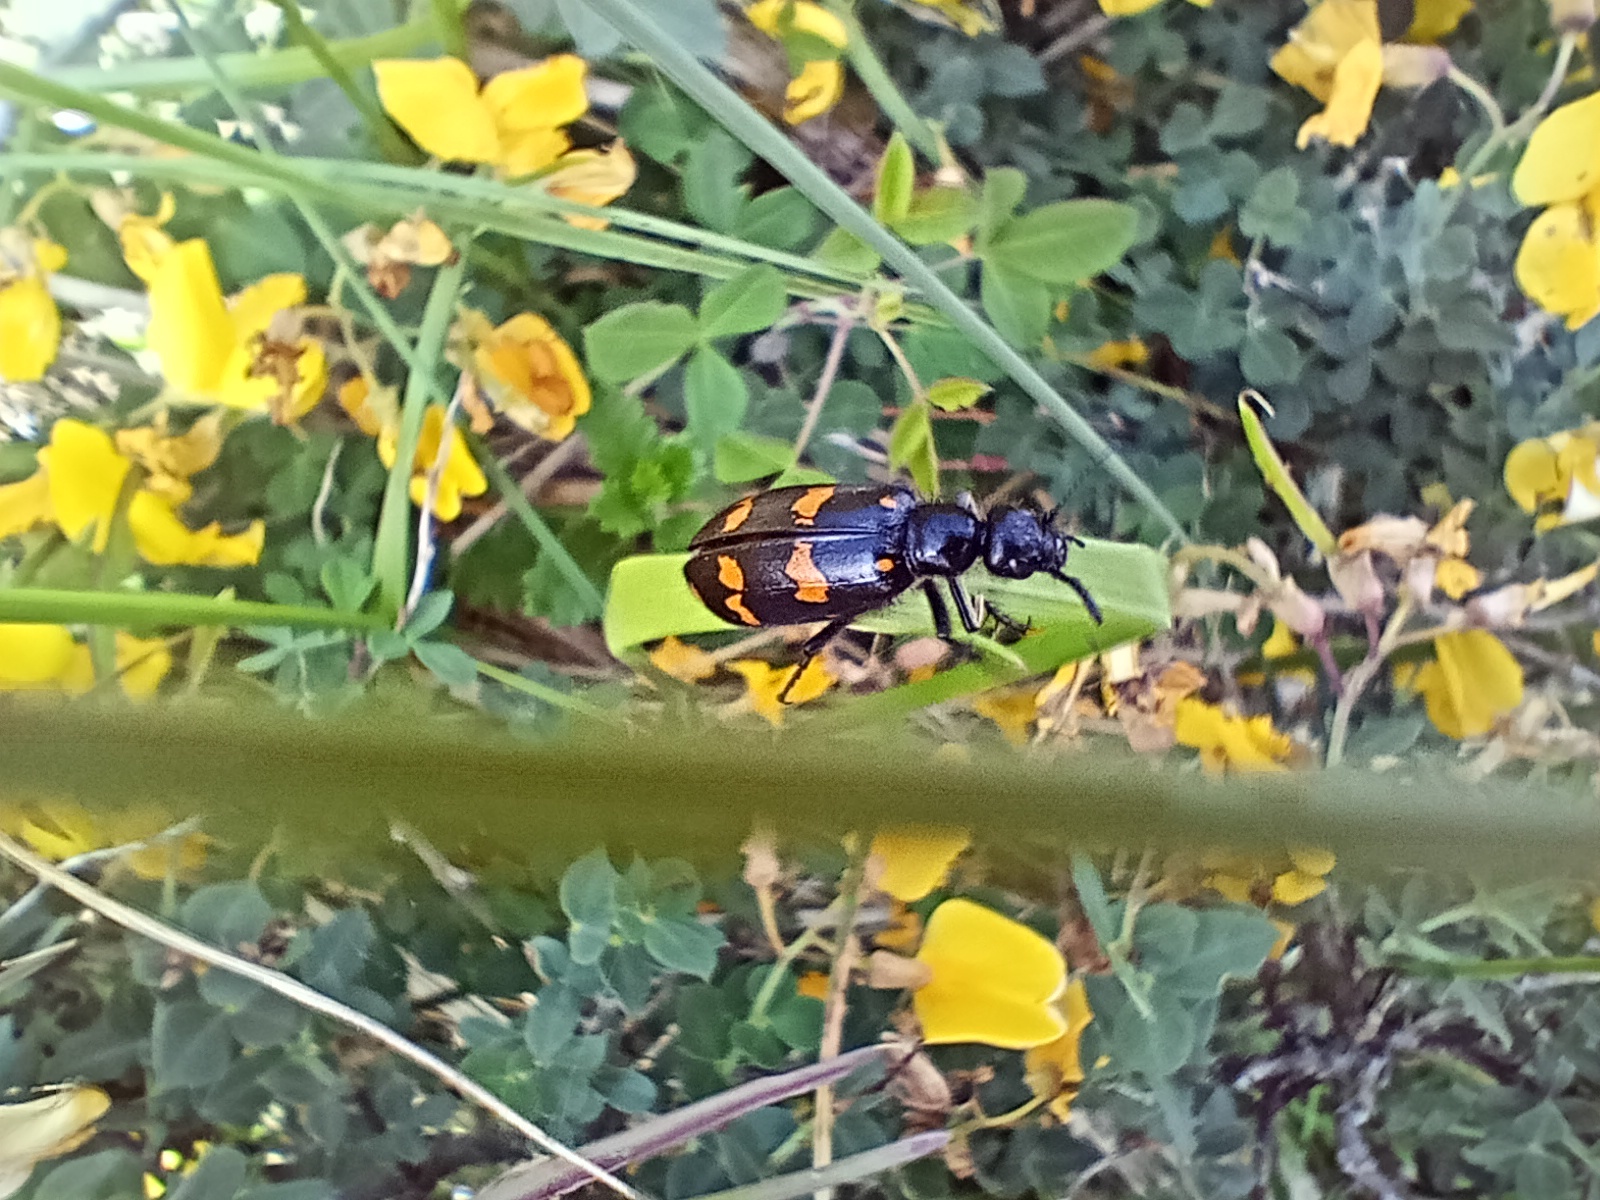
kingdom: Animalia
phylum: Arthropoda
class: Insecta
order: Coleoptera
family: Meloidae
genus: Hycleus
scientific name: Hycleus polymorphus
